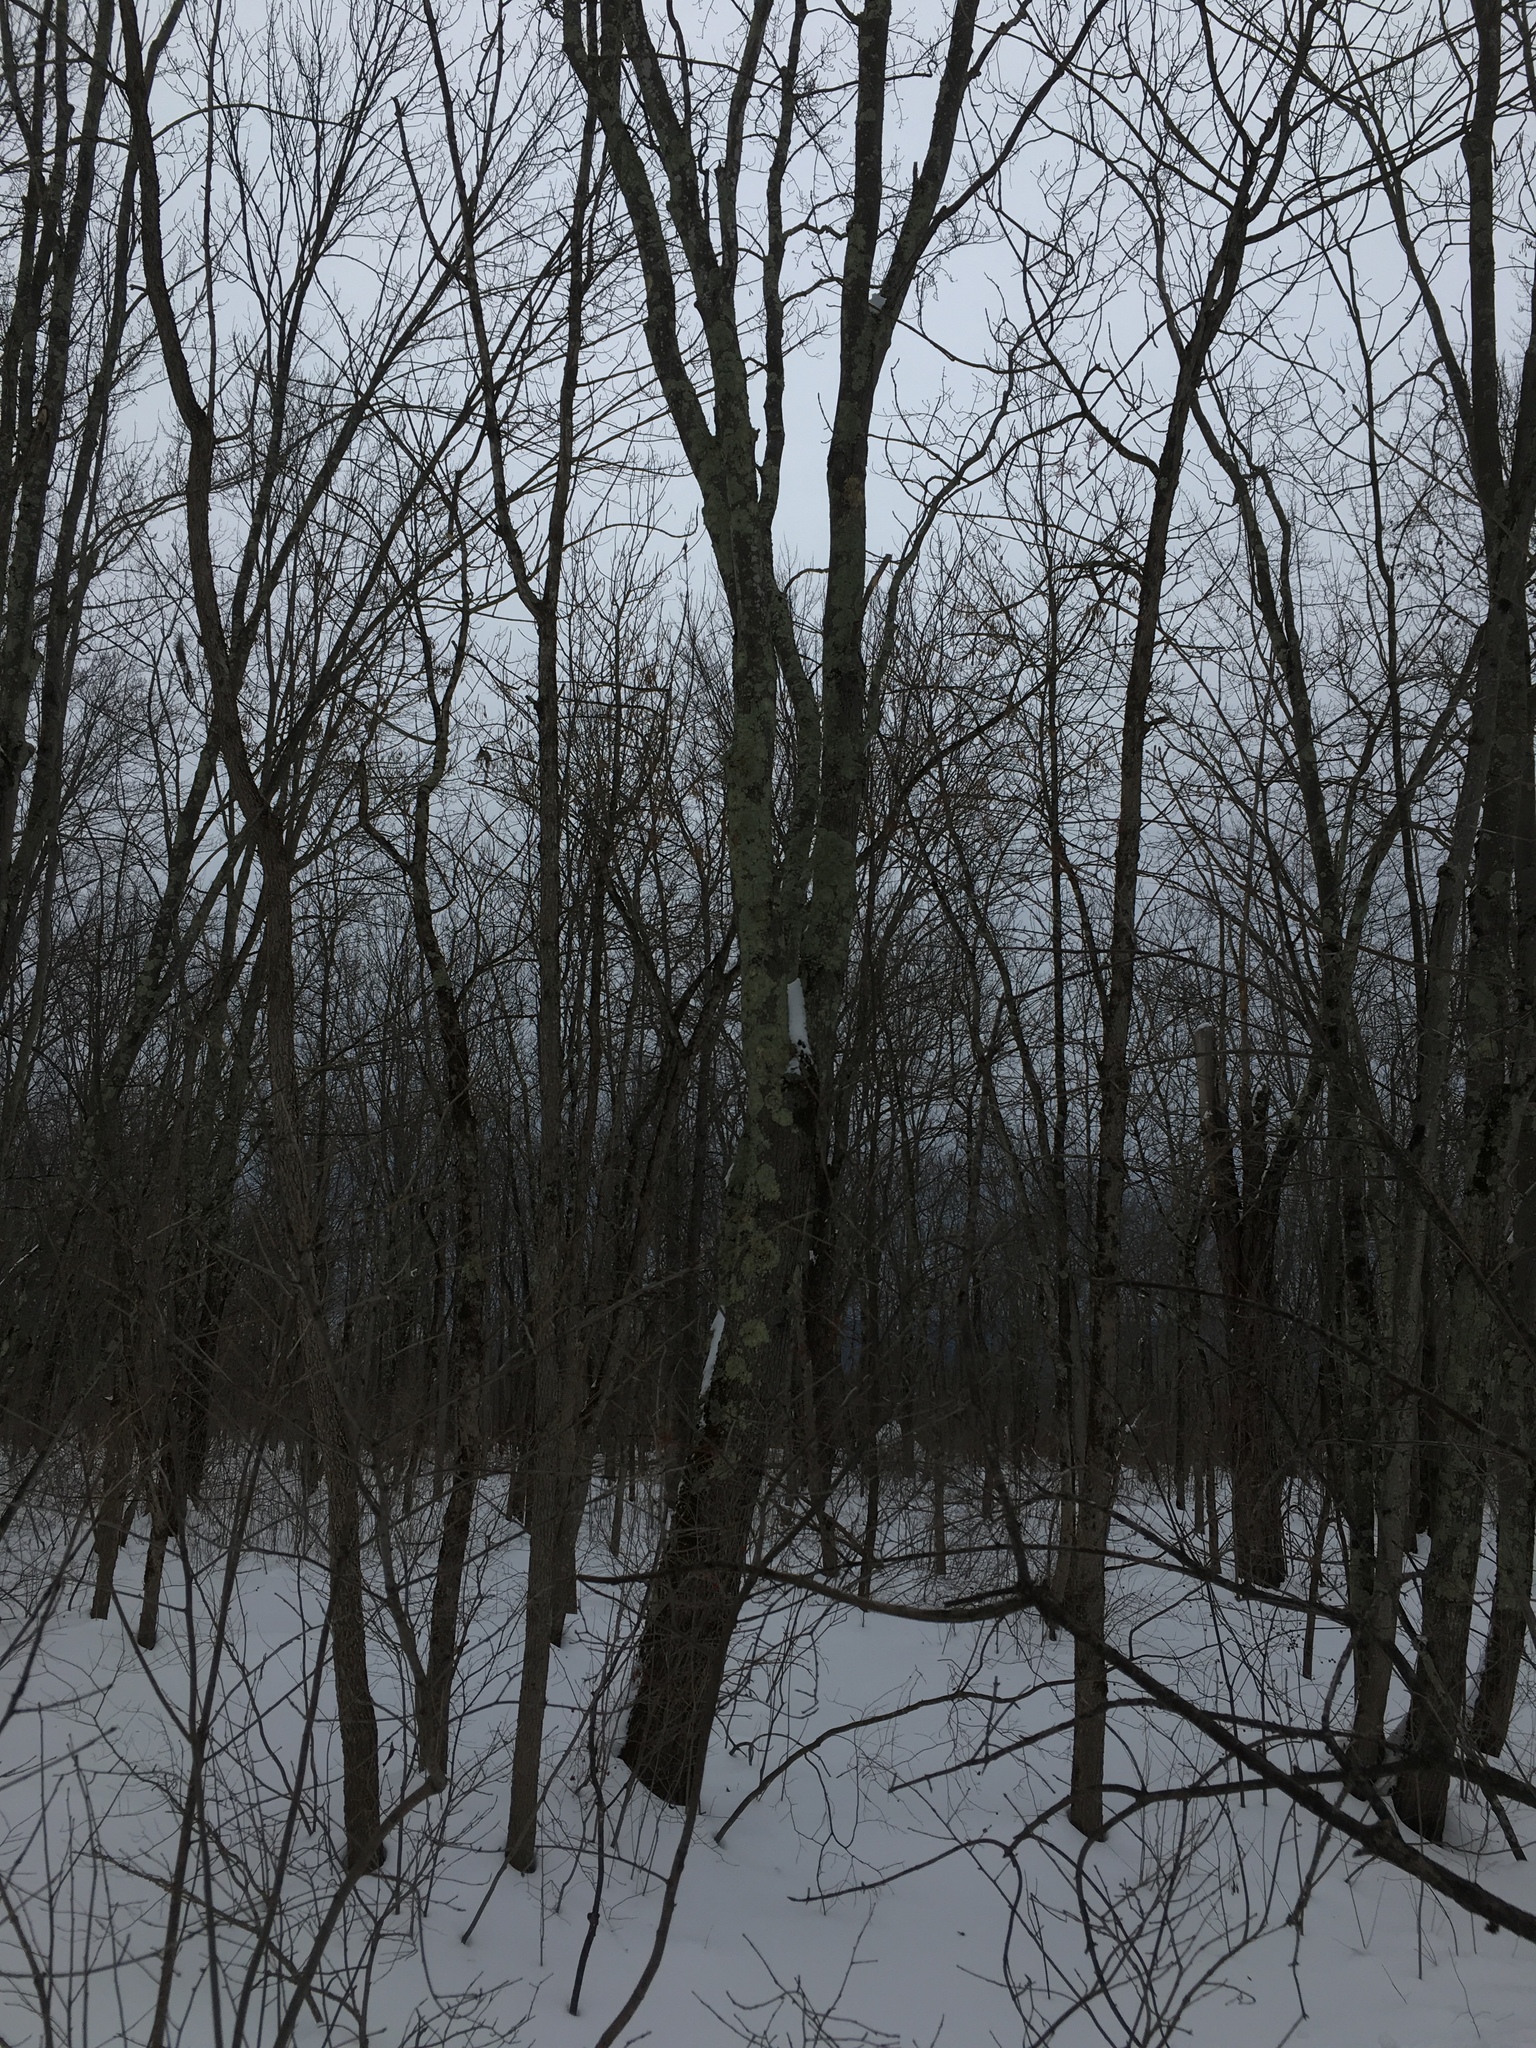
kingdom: Plantae
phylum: Tracheophyta
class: Magnoliopsida
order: Sapindales
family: Sapindaceae
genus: Acer
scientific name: Acer rubrum
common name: Red maple
